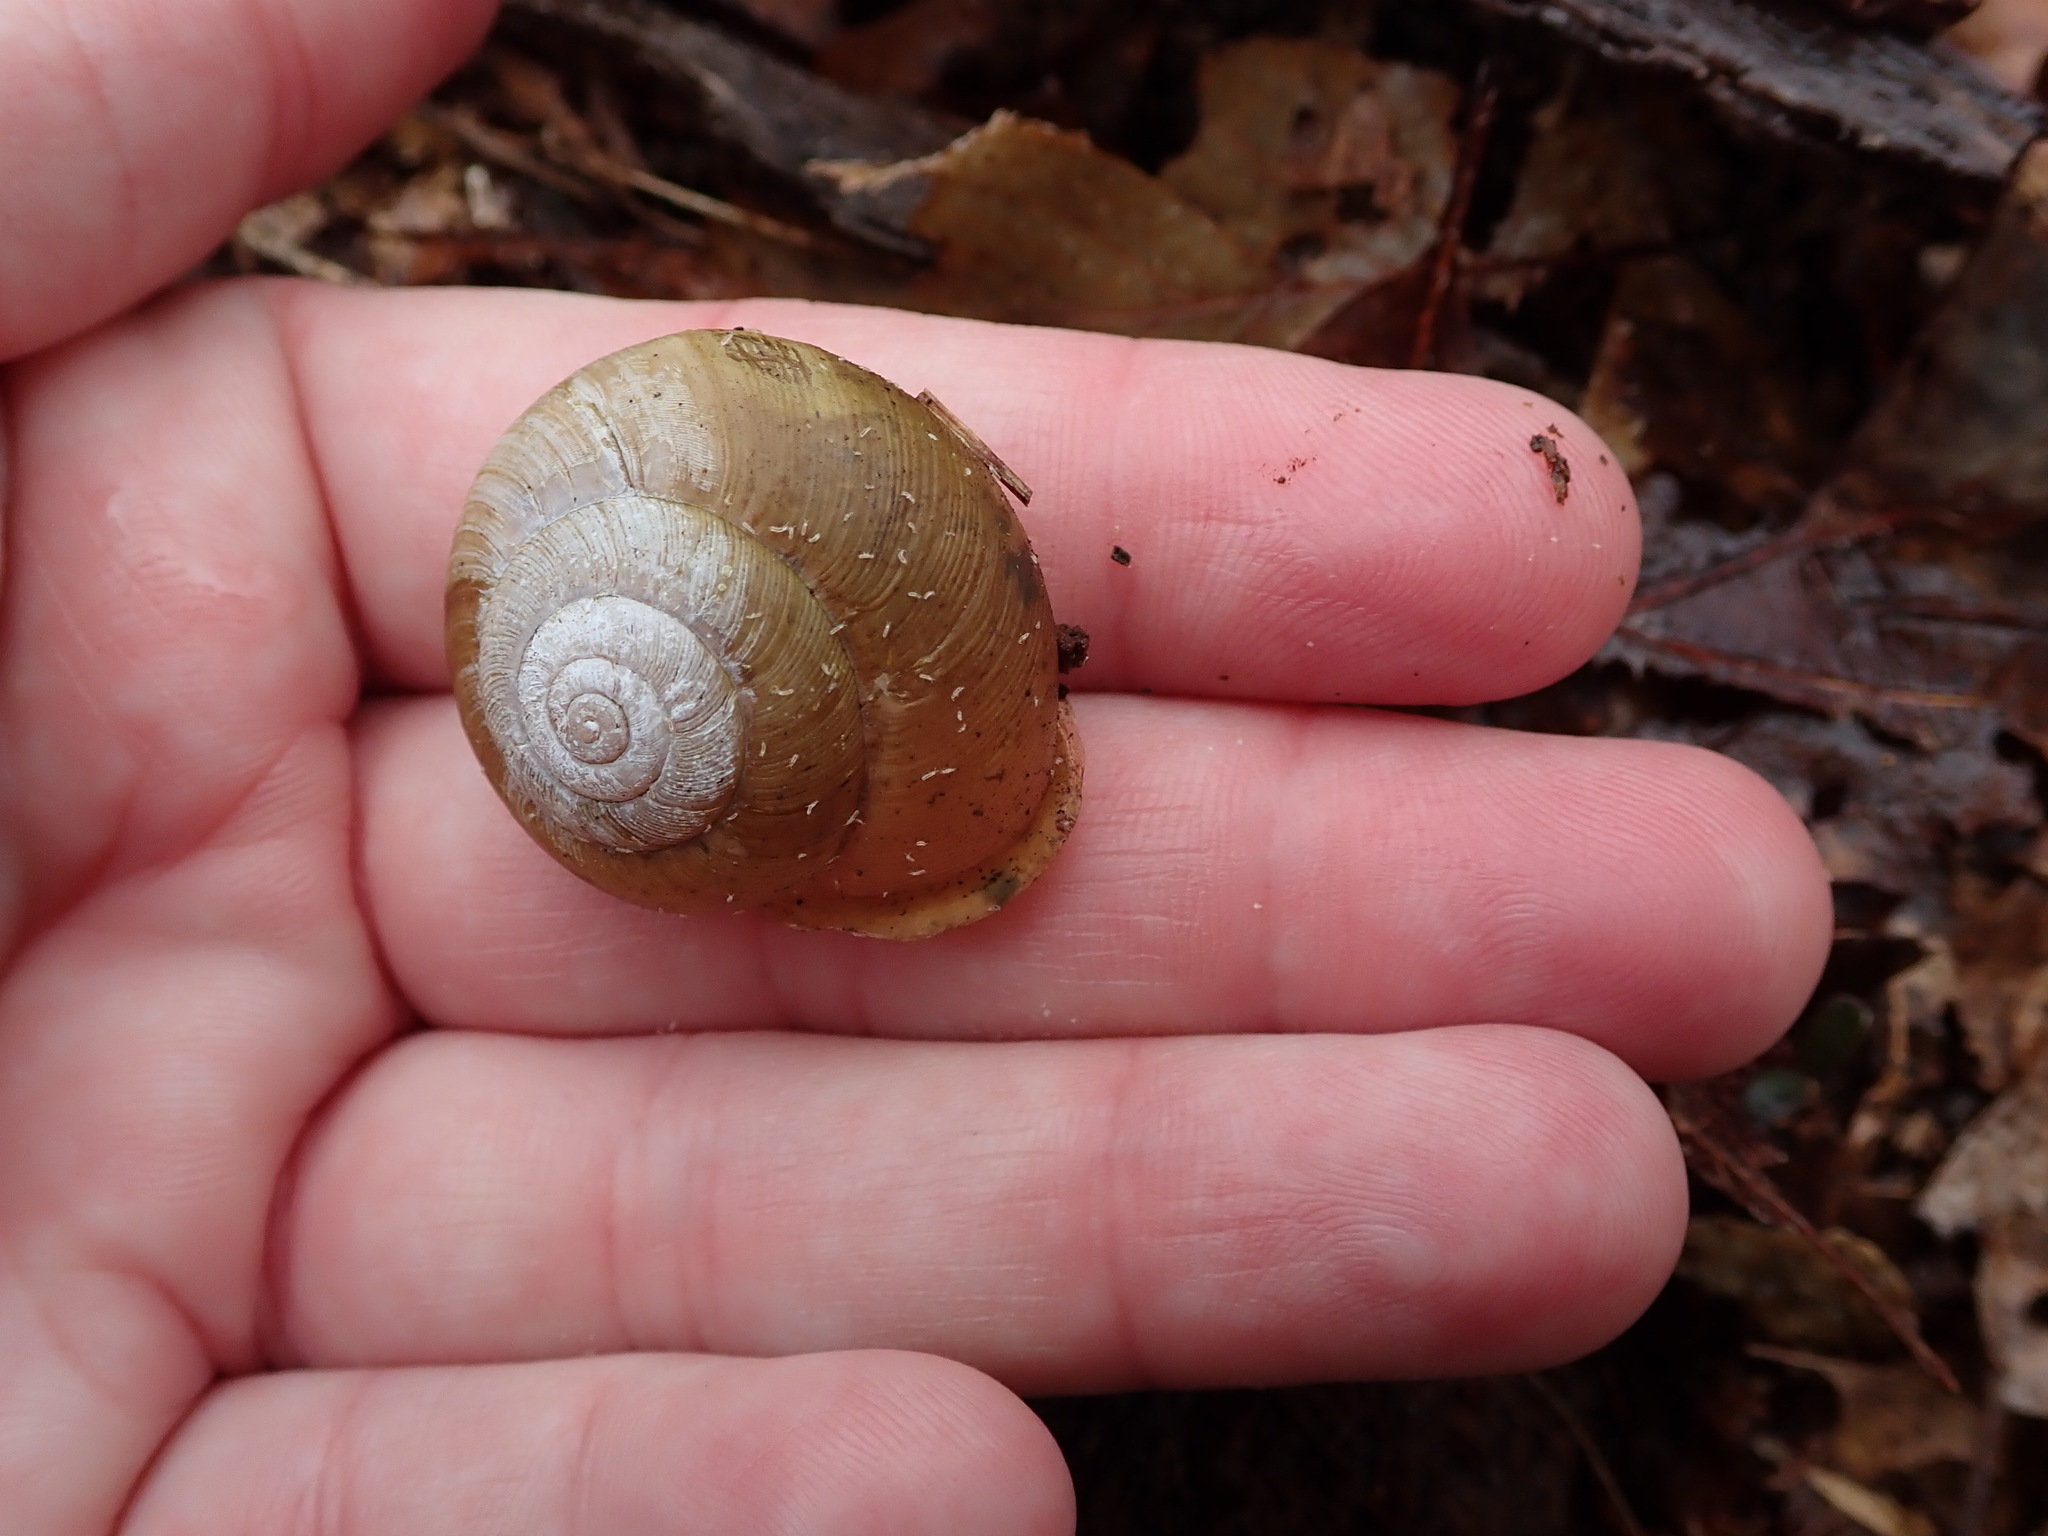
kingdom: Animalia
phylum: Mollusca
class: Gastropoda
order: Stylommatophora
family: Polygyridae
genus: Neohelix
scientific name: Neohelix albolabris
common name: Eastern whitelip
